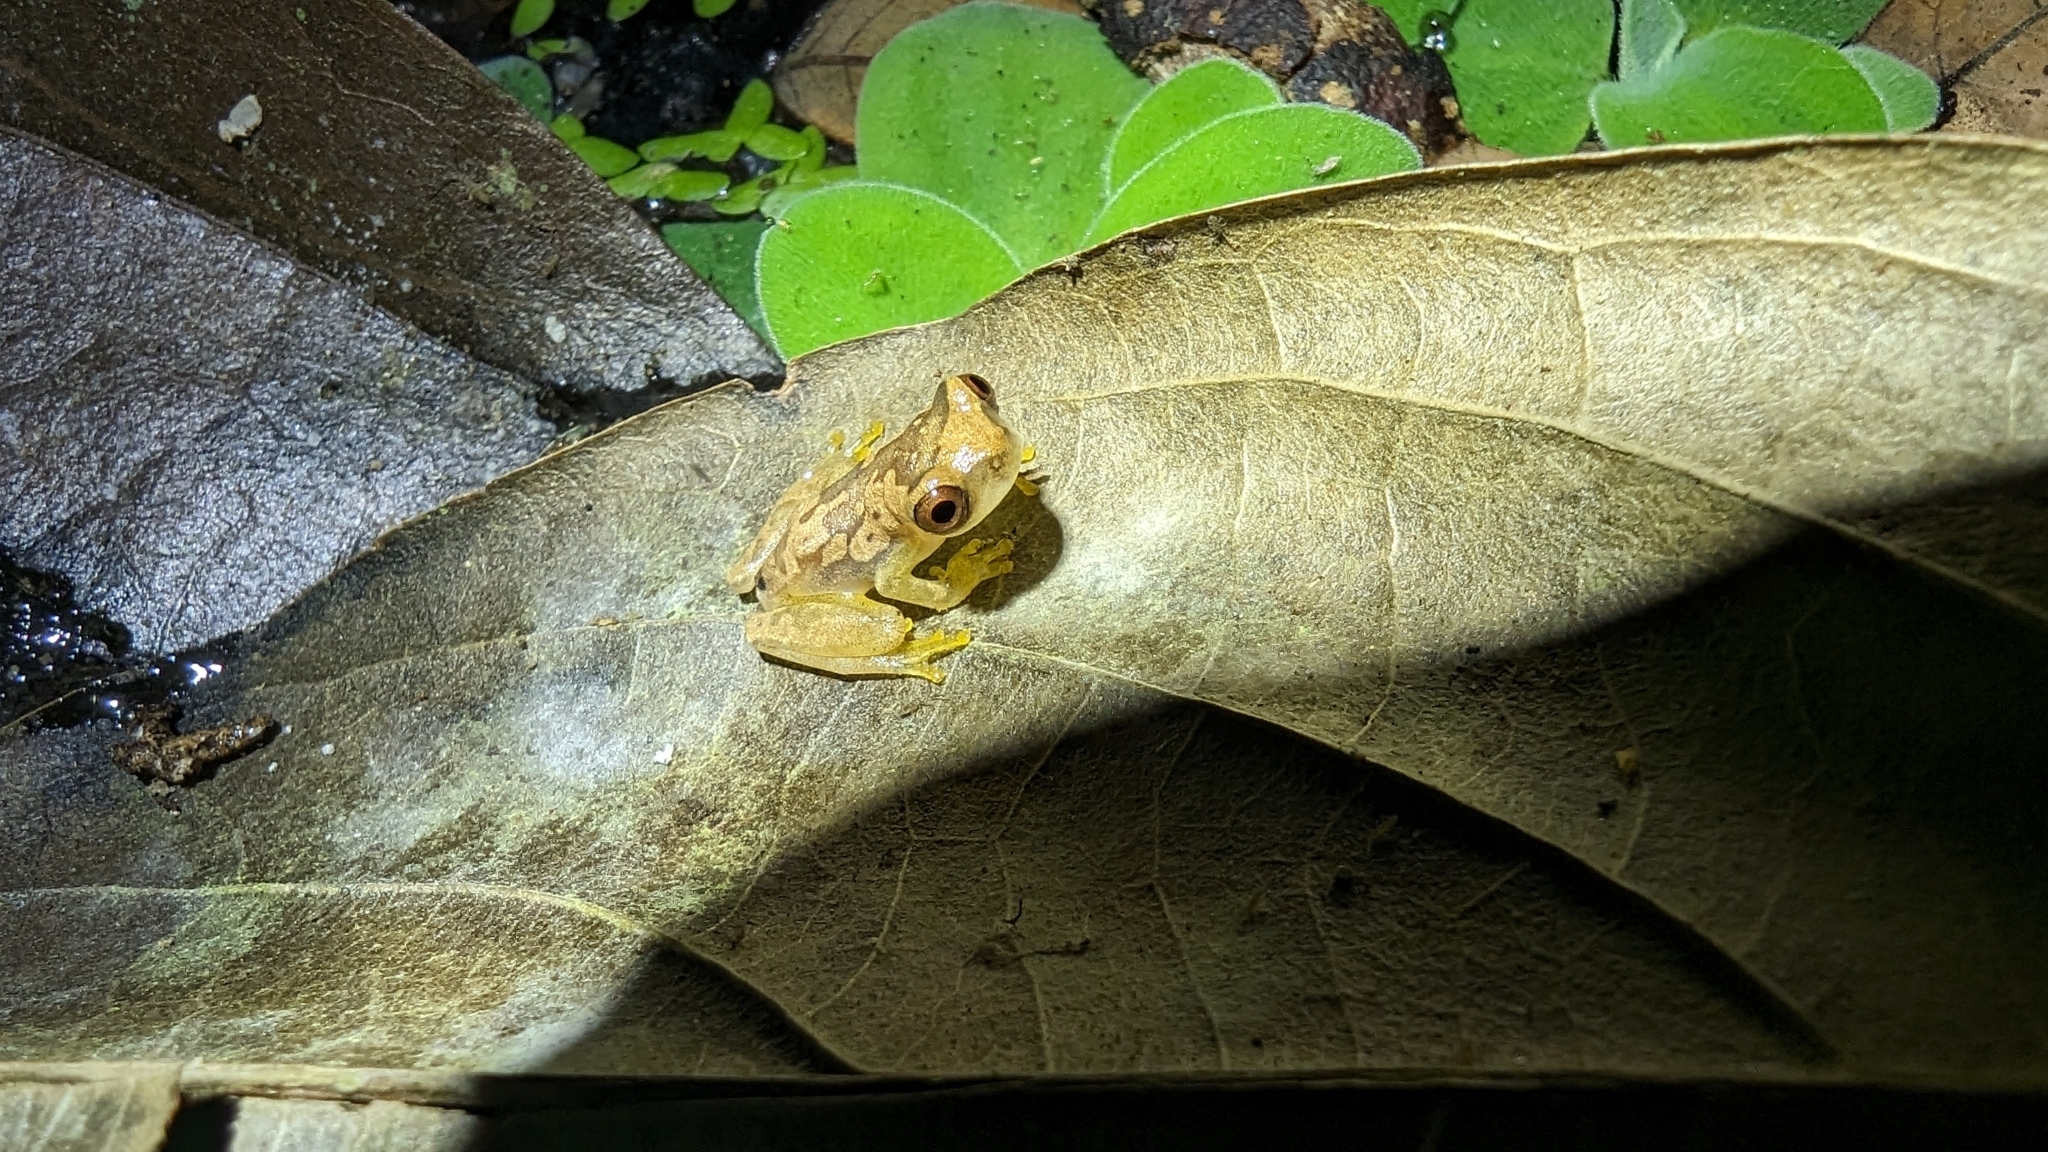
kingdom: Animalia
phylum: Chordata
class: Amphibia
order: Anura
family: Hylidae
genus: Dendropsophus
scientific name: Dendropsophus ebraccatus
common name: Hourglass treefrog
